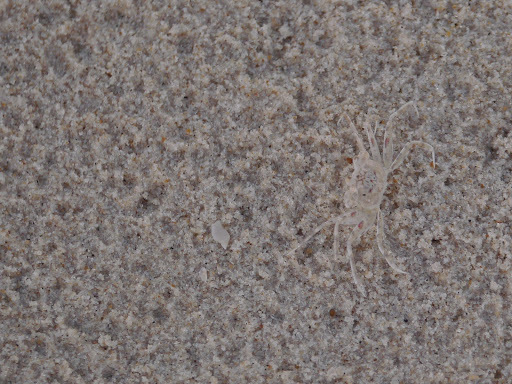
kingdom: Animalia
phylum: Arthropoda
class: Malacostraca
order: Decapoda
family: Ocypodidae
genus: Ocypode
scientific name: Ocypode cursor
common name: Tufted ghost crab
